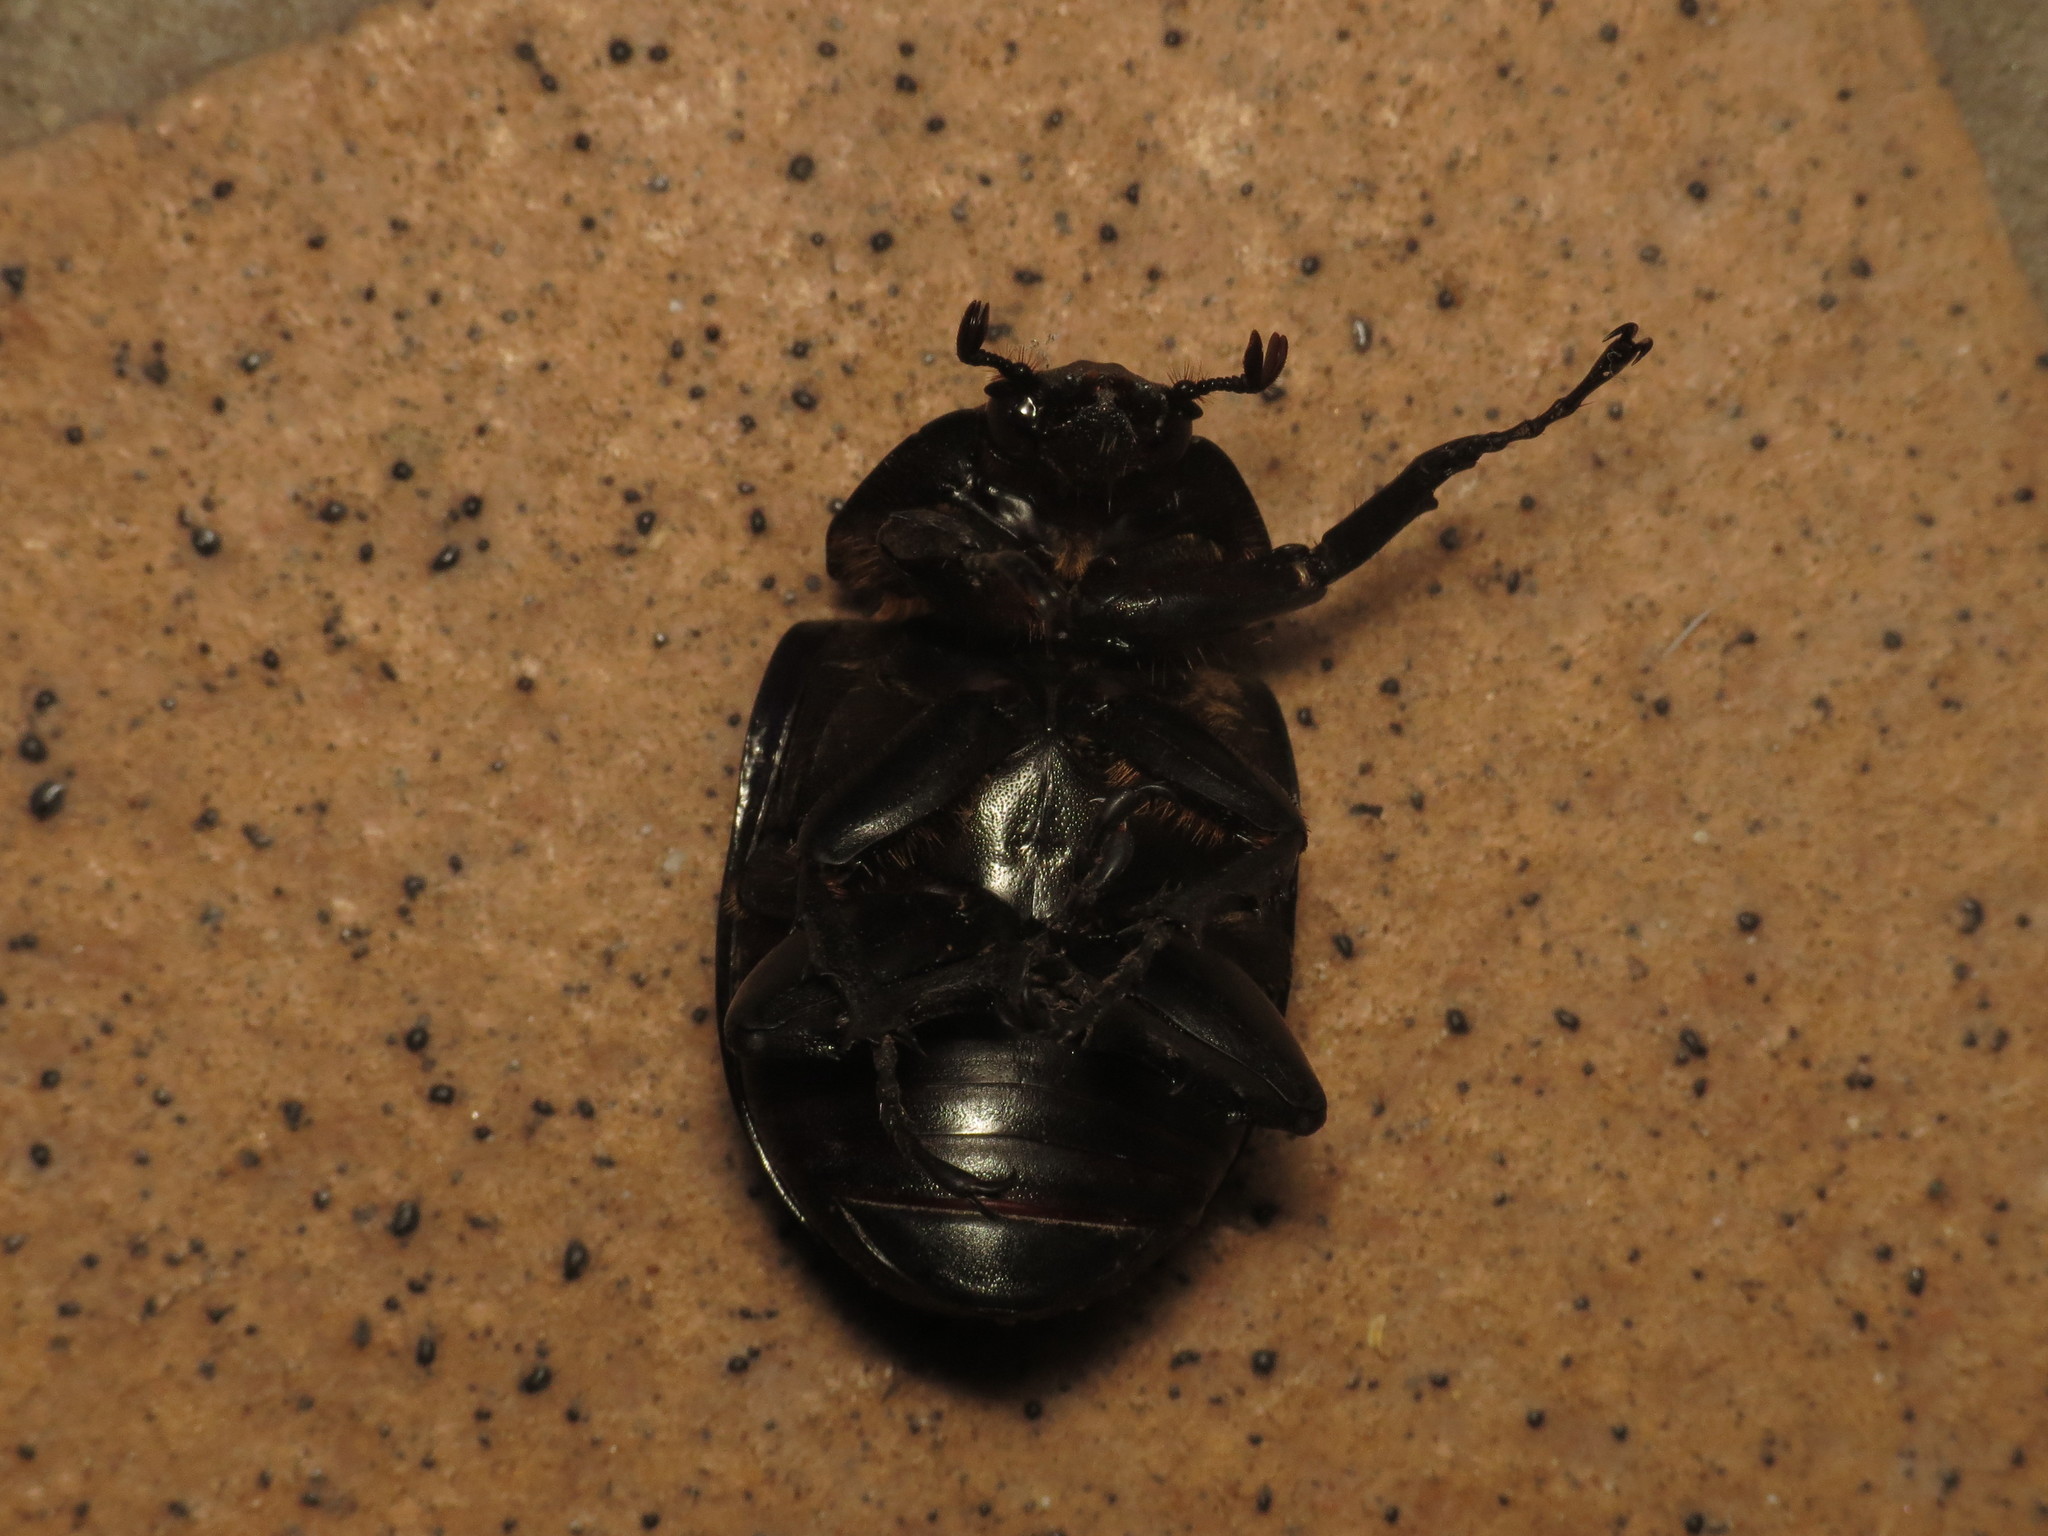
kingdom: Animalia
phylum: Arthropoda
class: Insecta
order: Coleoptera
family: Scarabaeidae
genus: Xylotrupes
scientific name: Xylotrupes australicus
